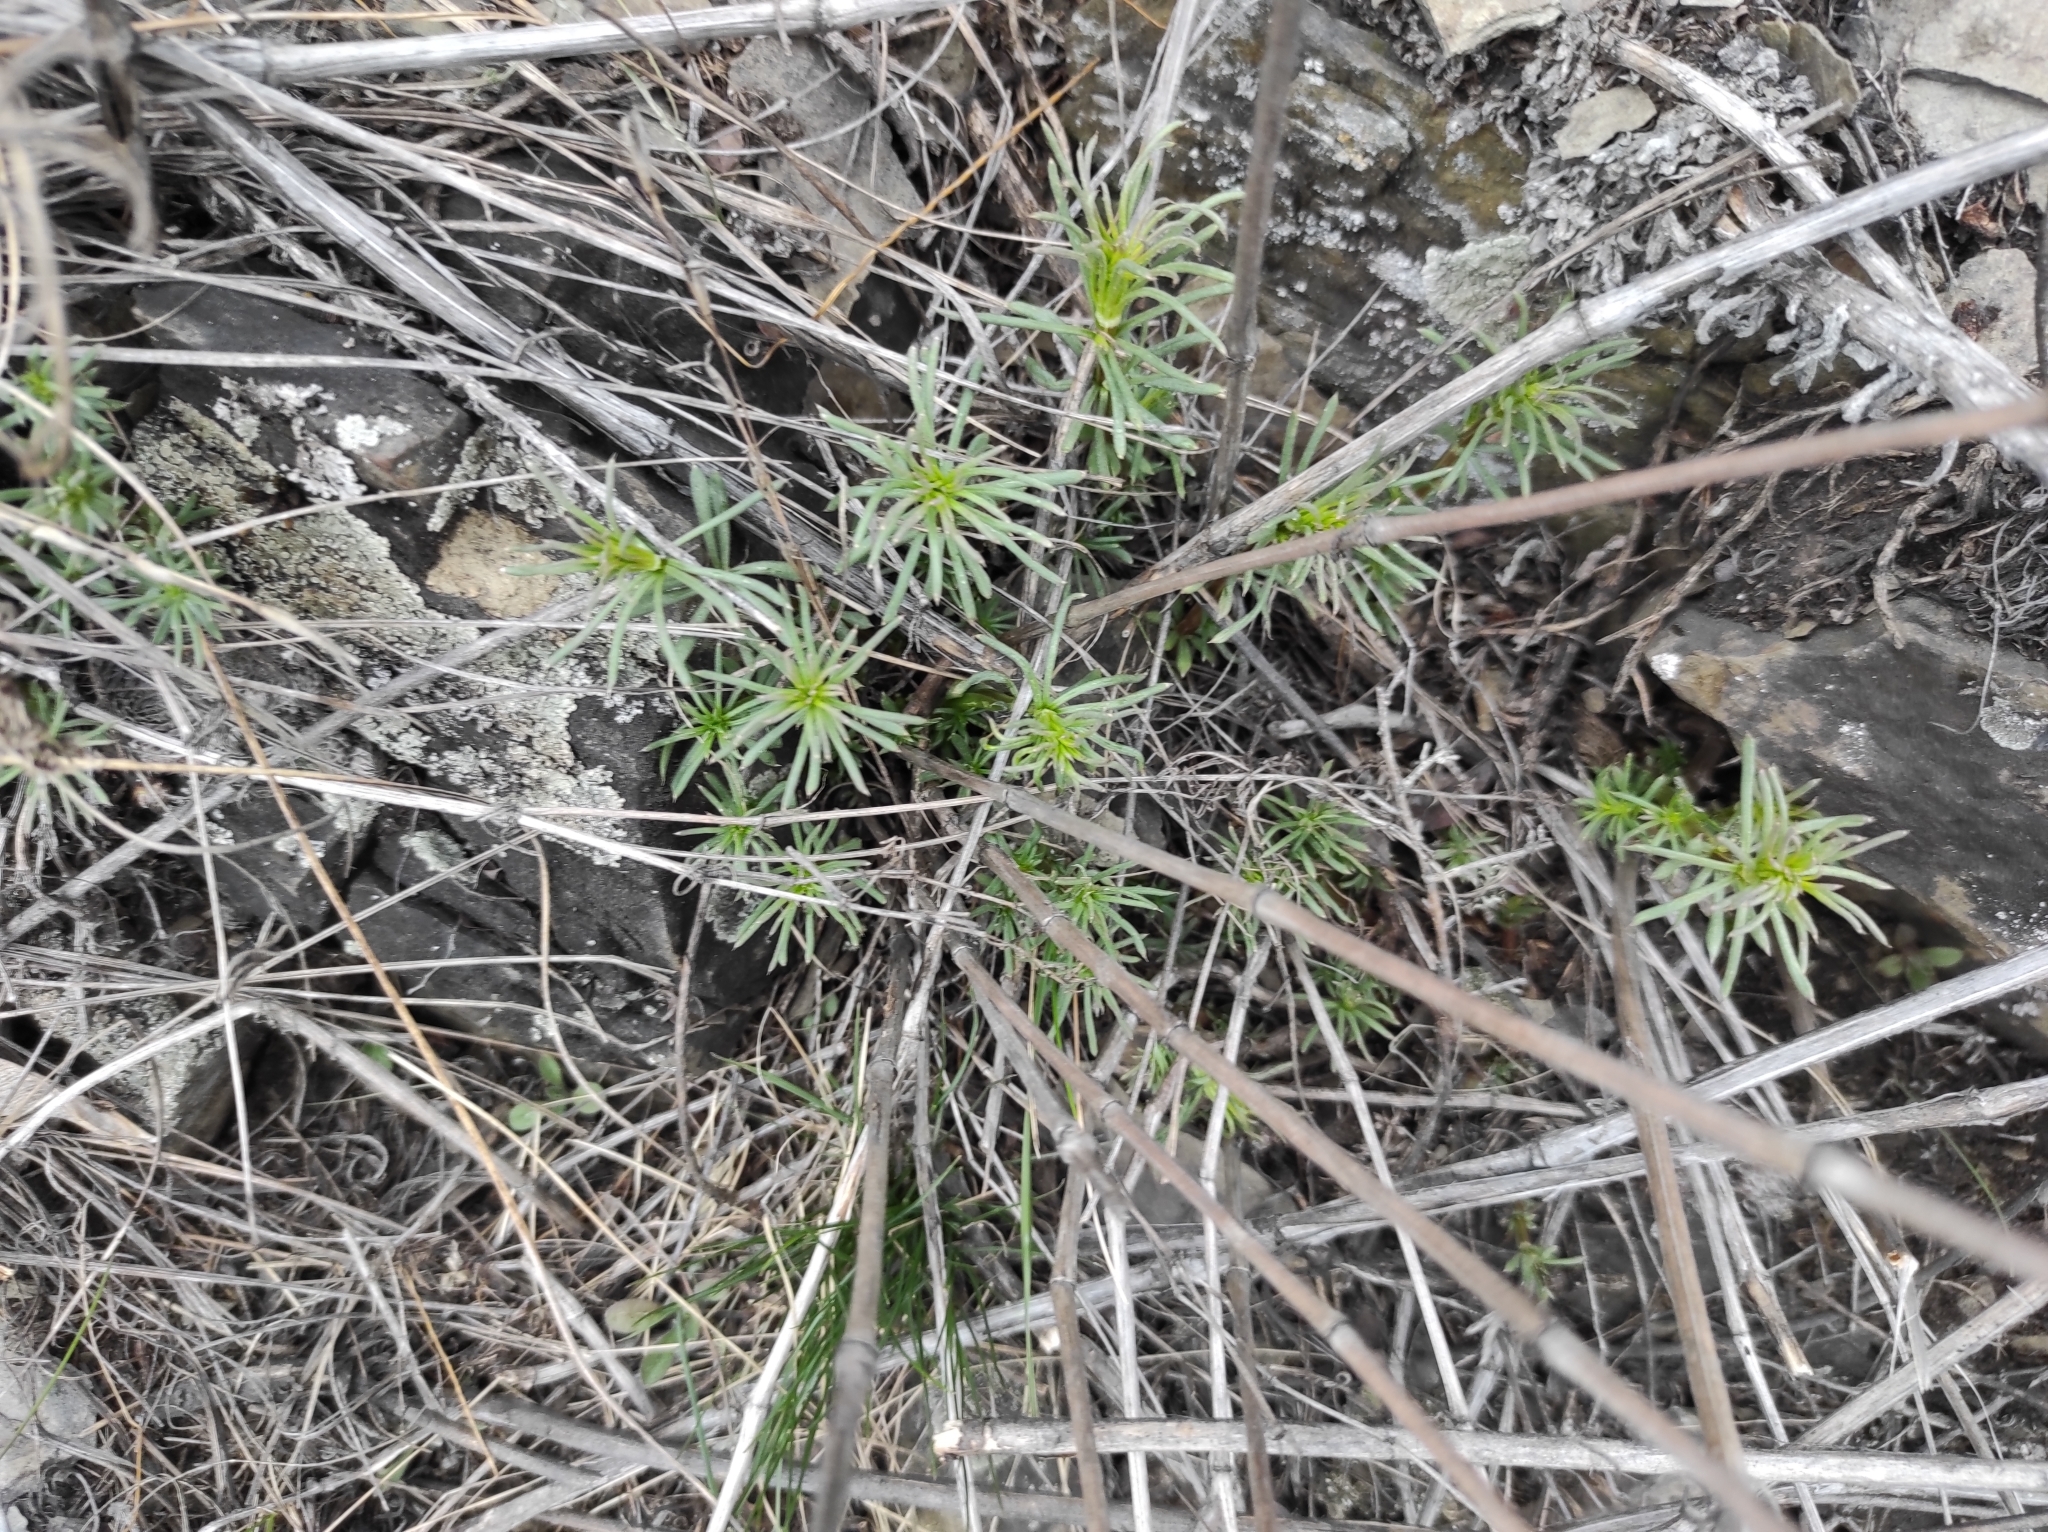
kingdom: Plantae
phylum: Tracheophyta
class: Magnoliopsida
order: Gentianales
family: Rubiaceae
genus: Galium
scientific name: Galium verum
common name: Lady's bedstraw
